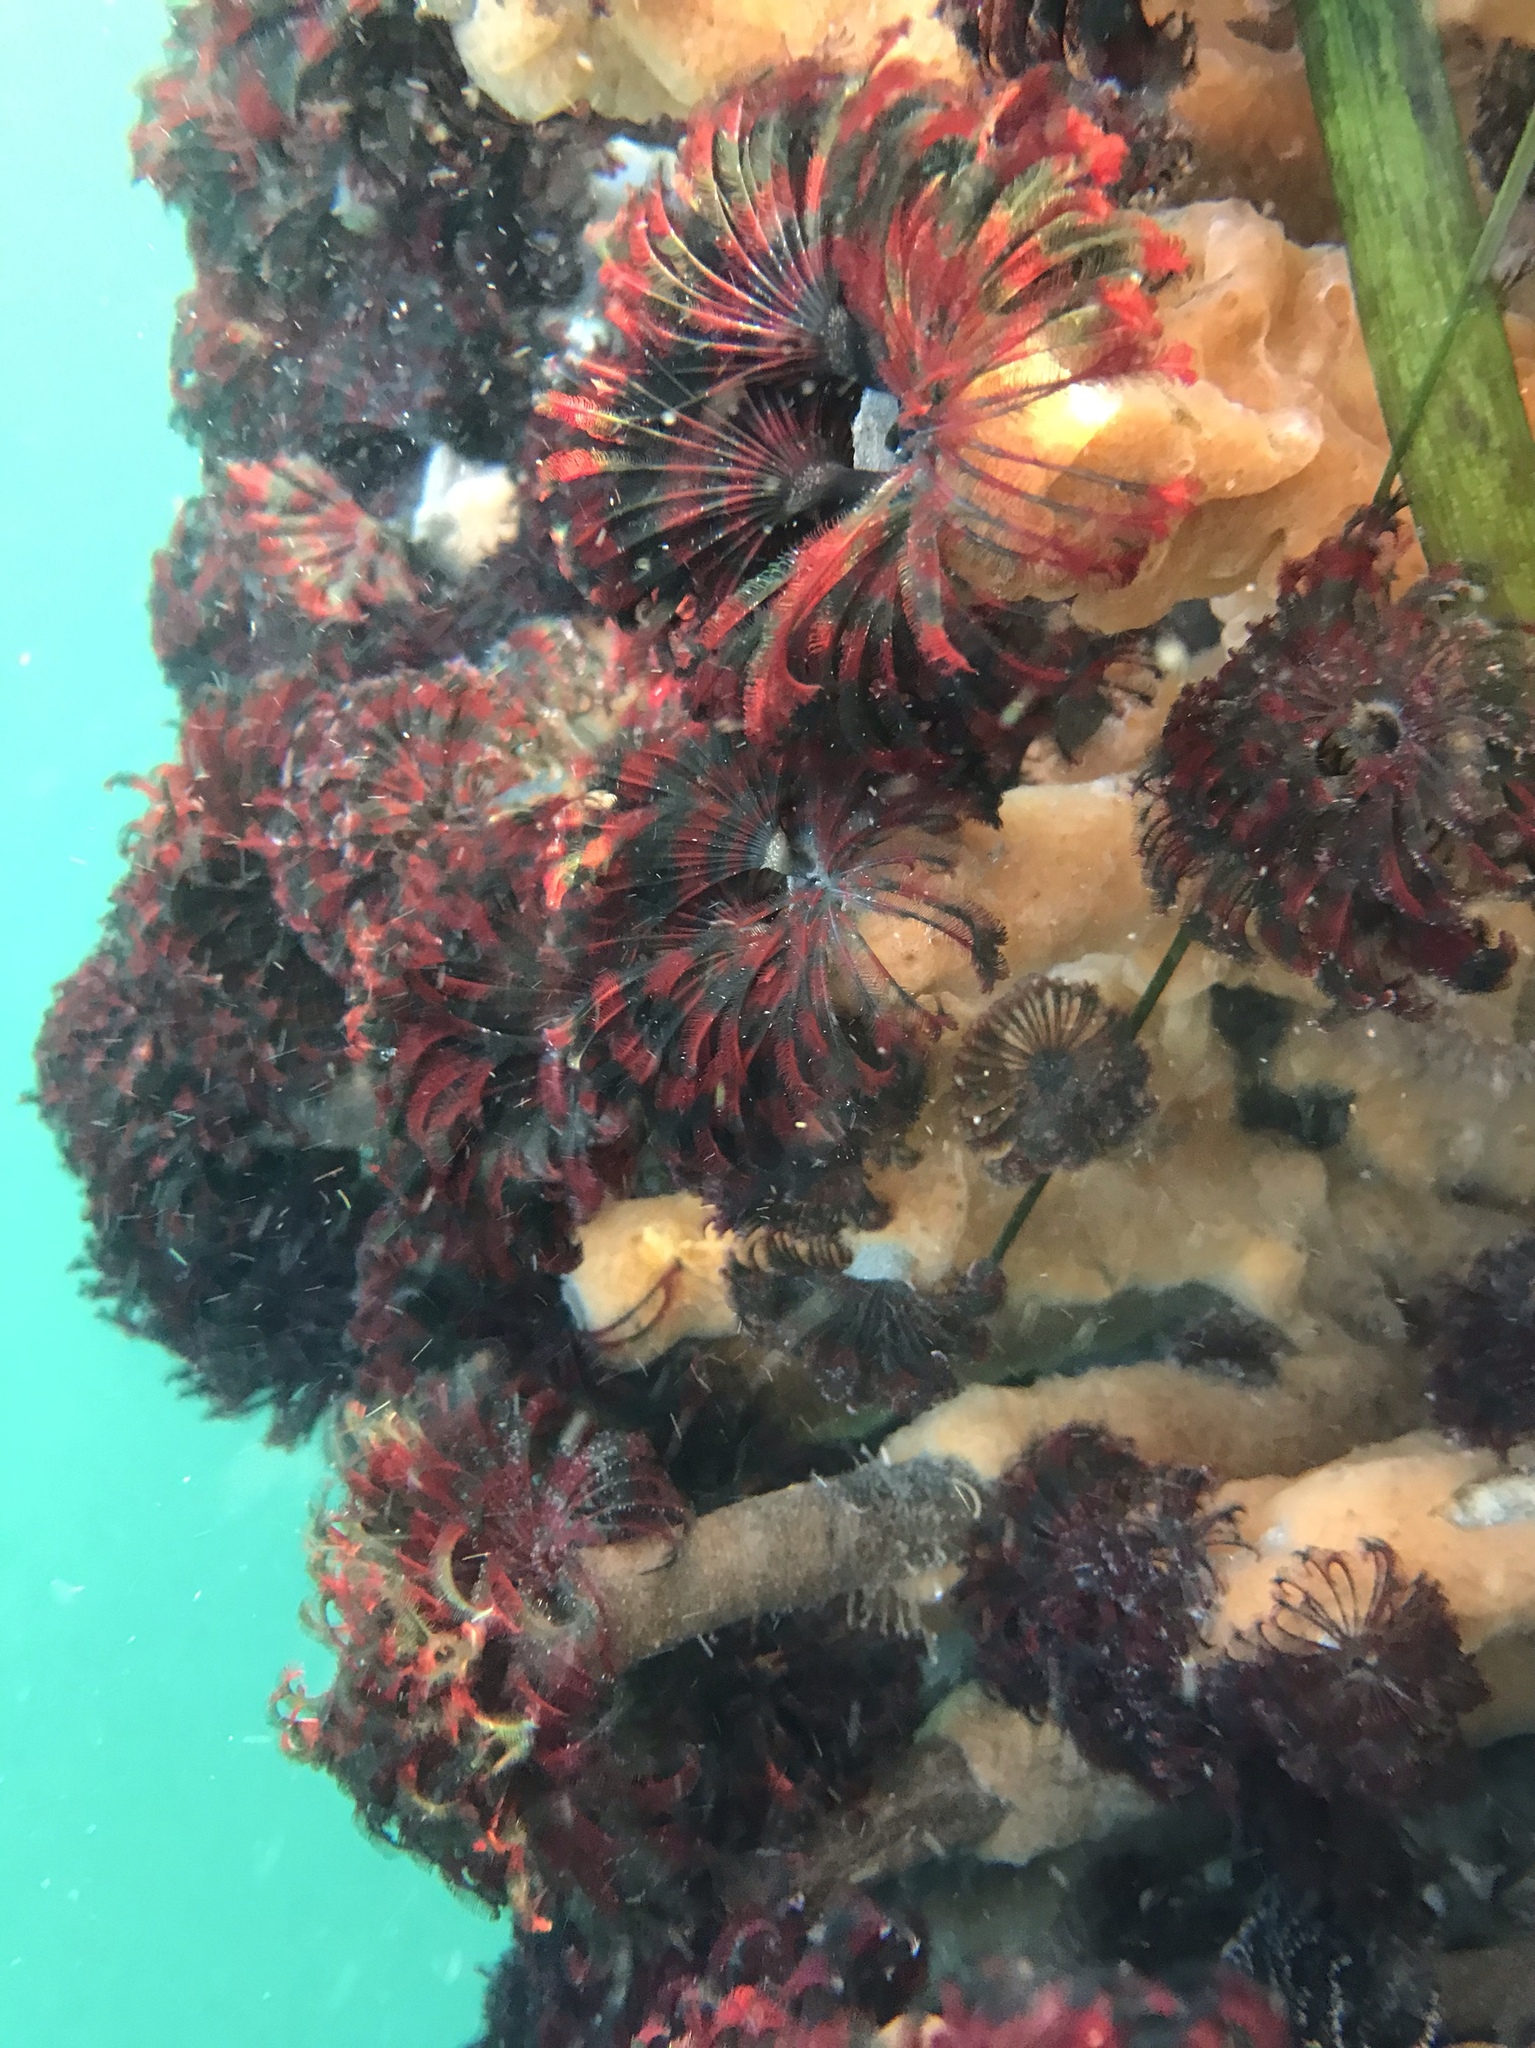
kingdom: Animalia
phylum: Annelida
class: Polychaeta
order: Sabellida
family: Sabellidae
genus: Eudistylia
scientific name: Eudistylia vancouveri
